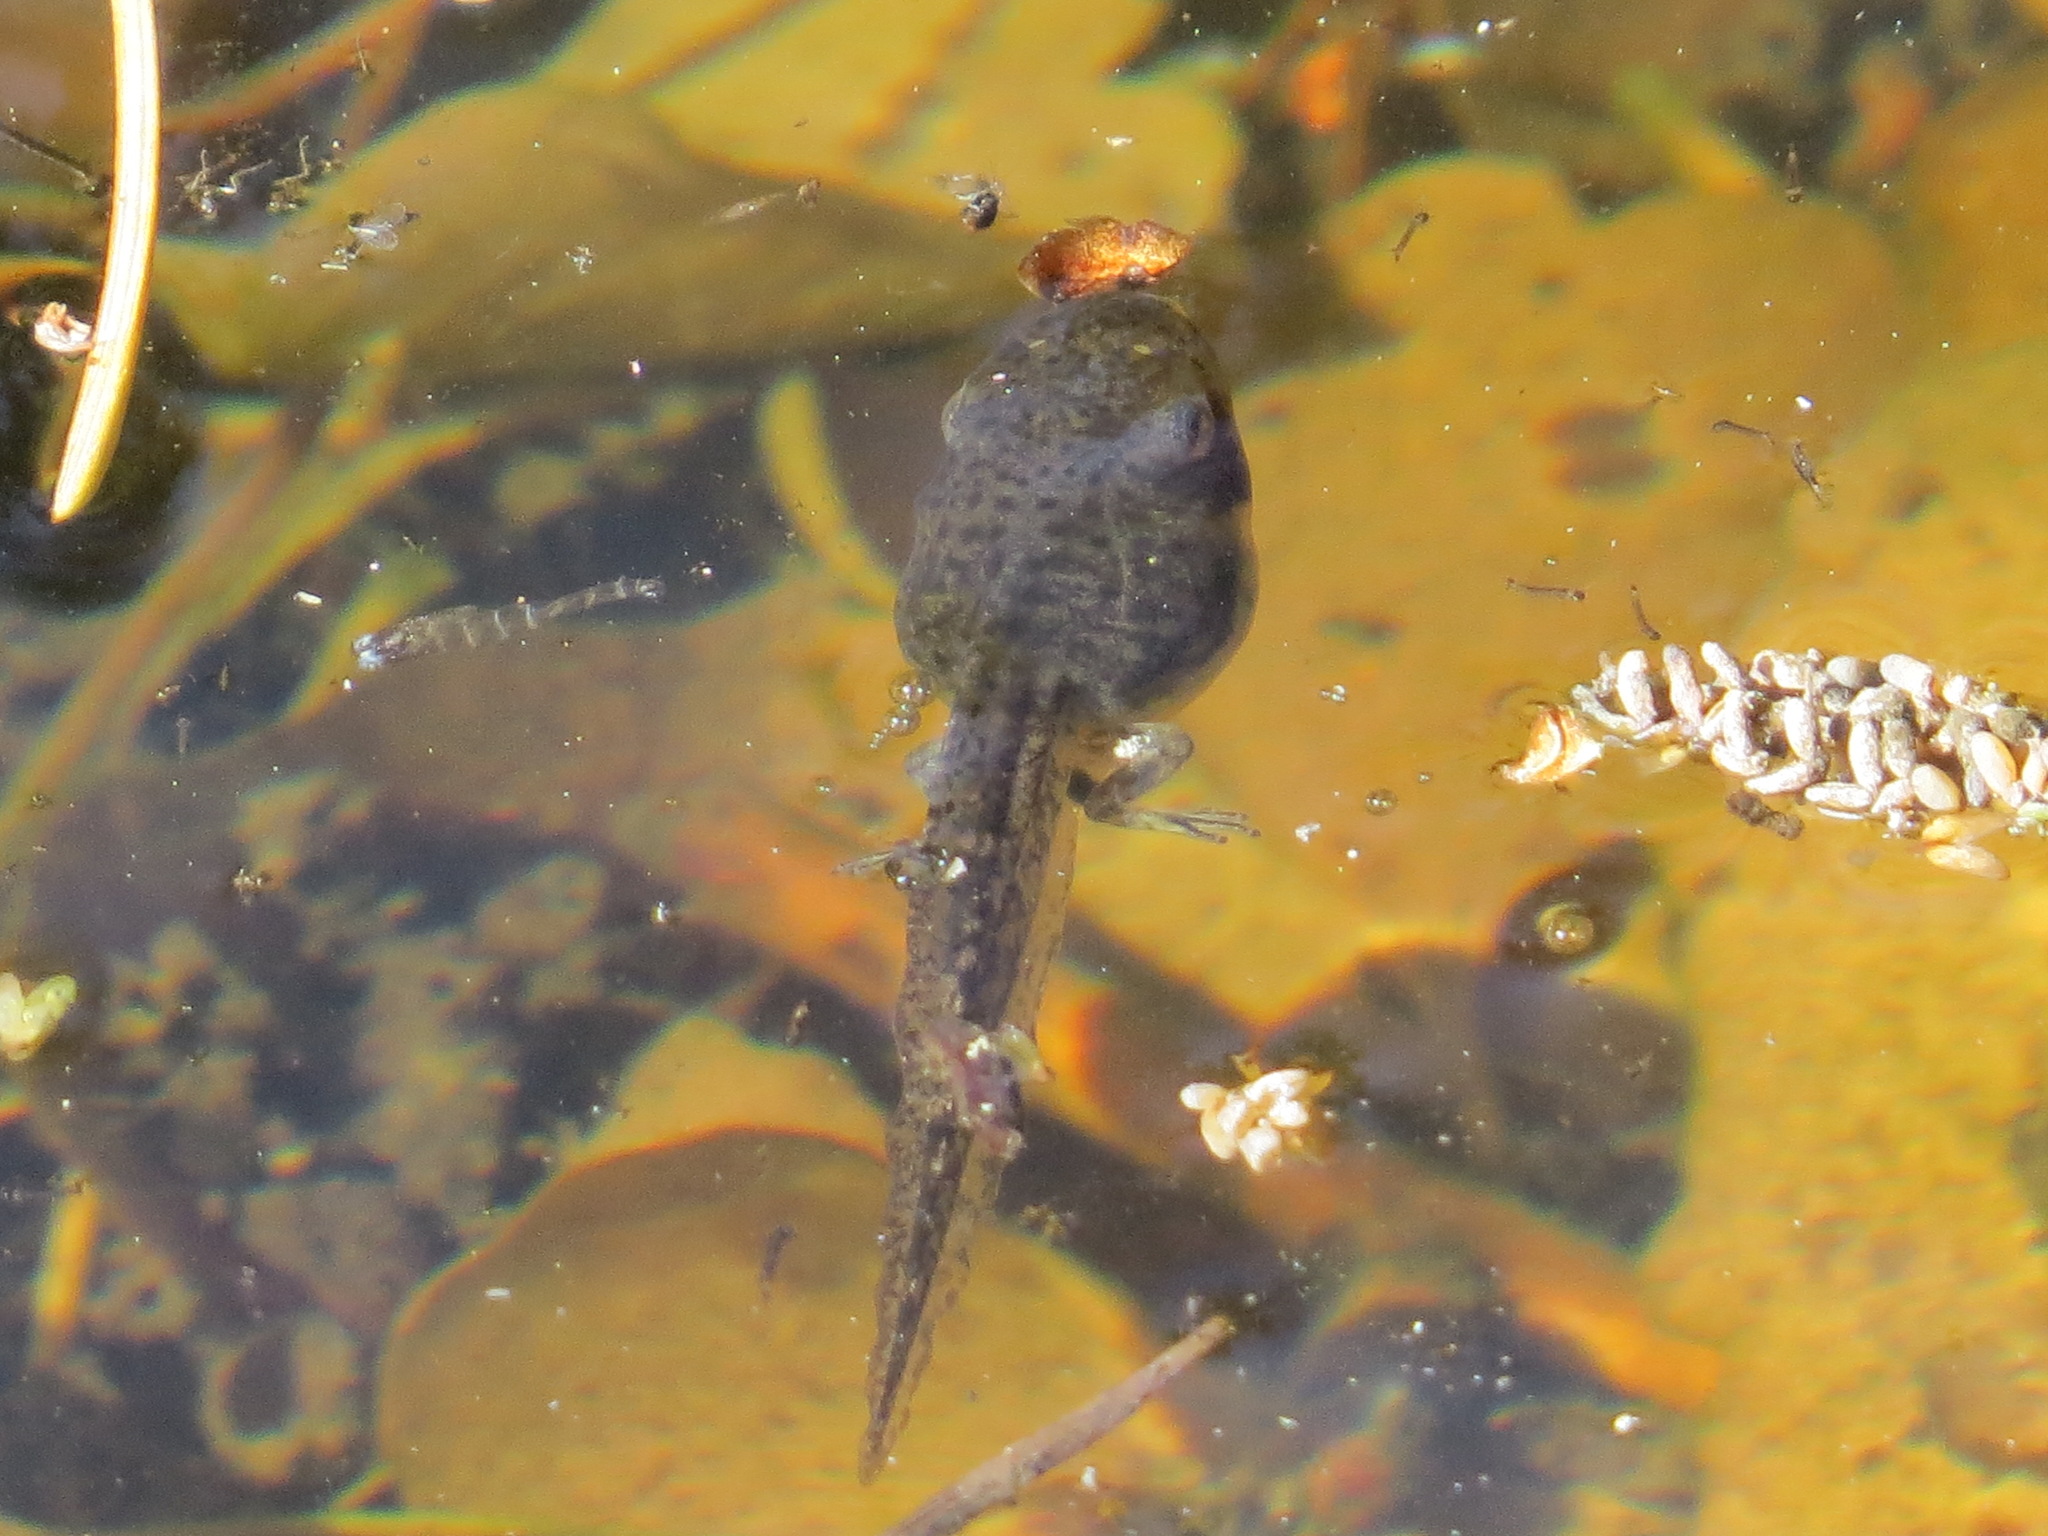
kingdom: Animalia
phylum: Chordata
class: Amphibia
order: Anura
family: Hylidae
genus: Pseudacris
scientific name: Pseudacris regilla
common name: Pacific chorus frog
